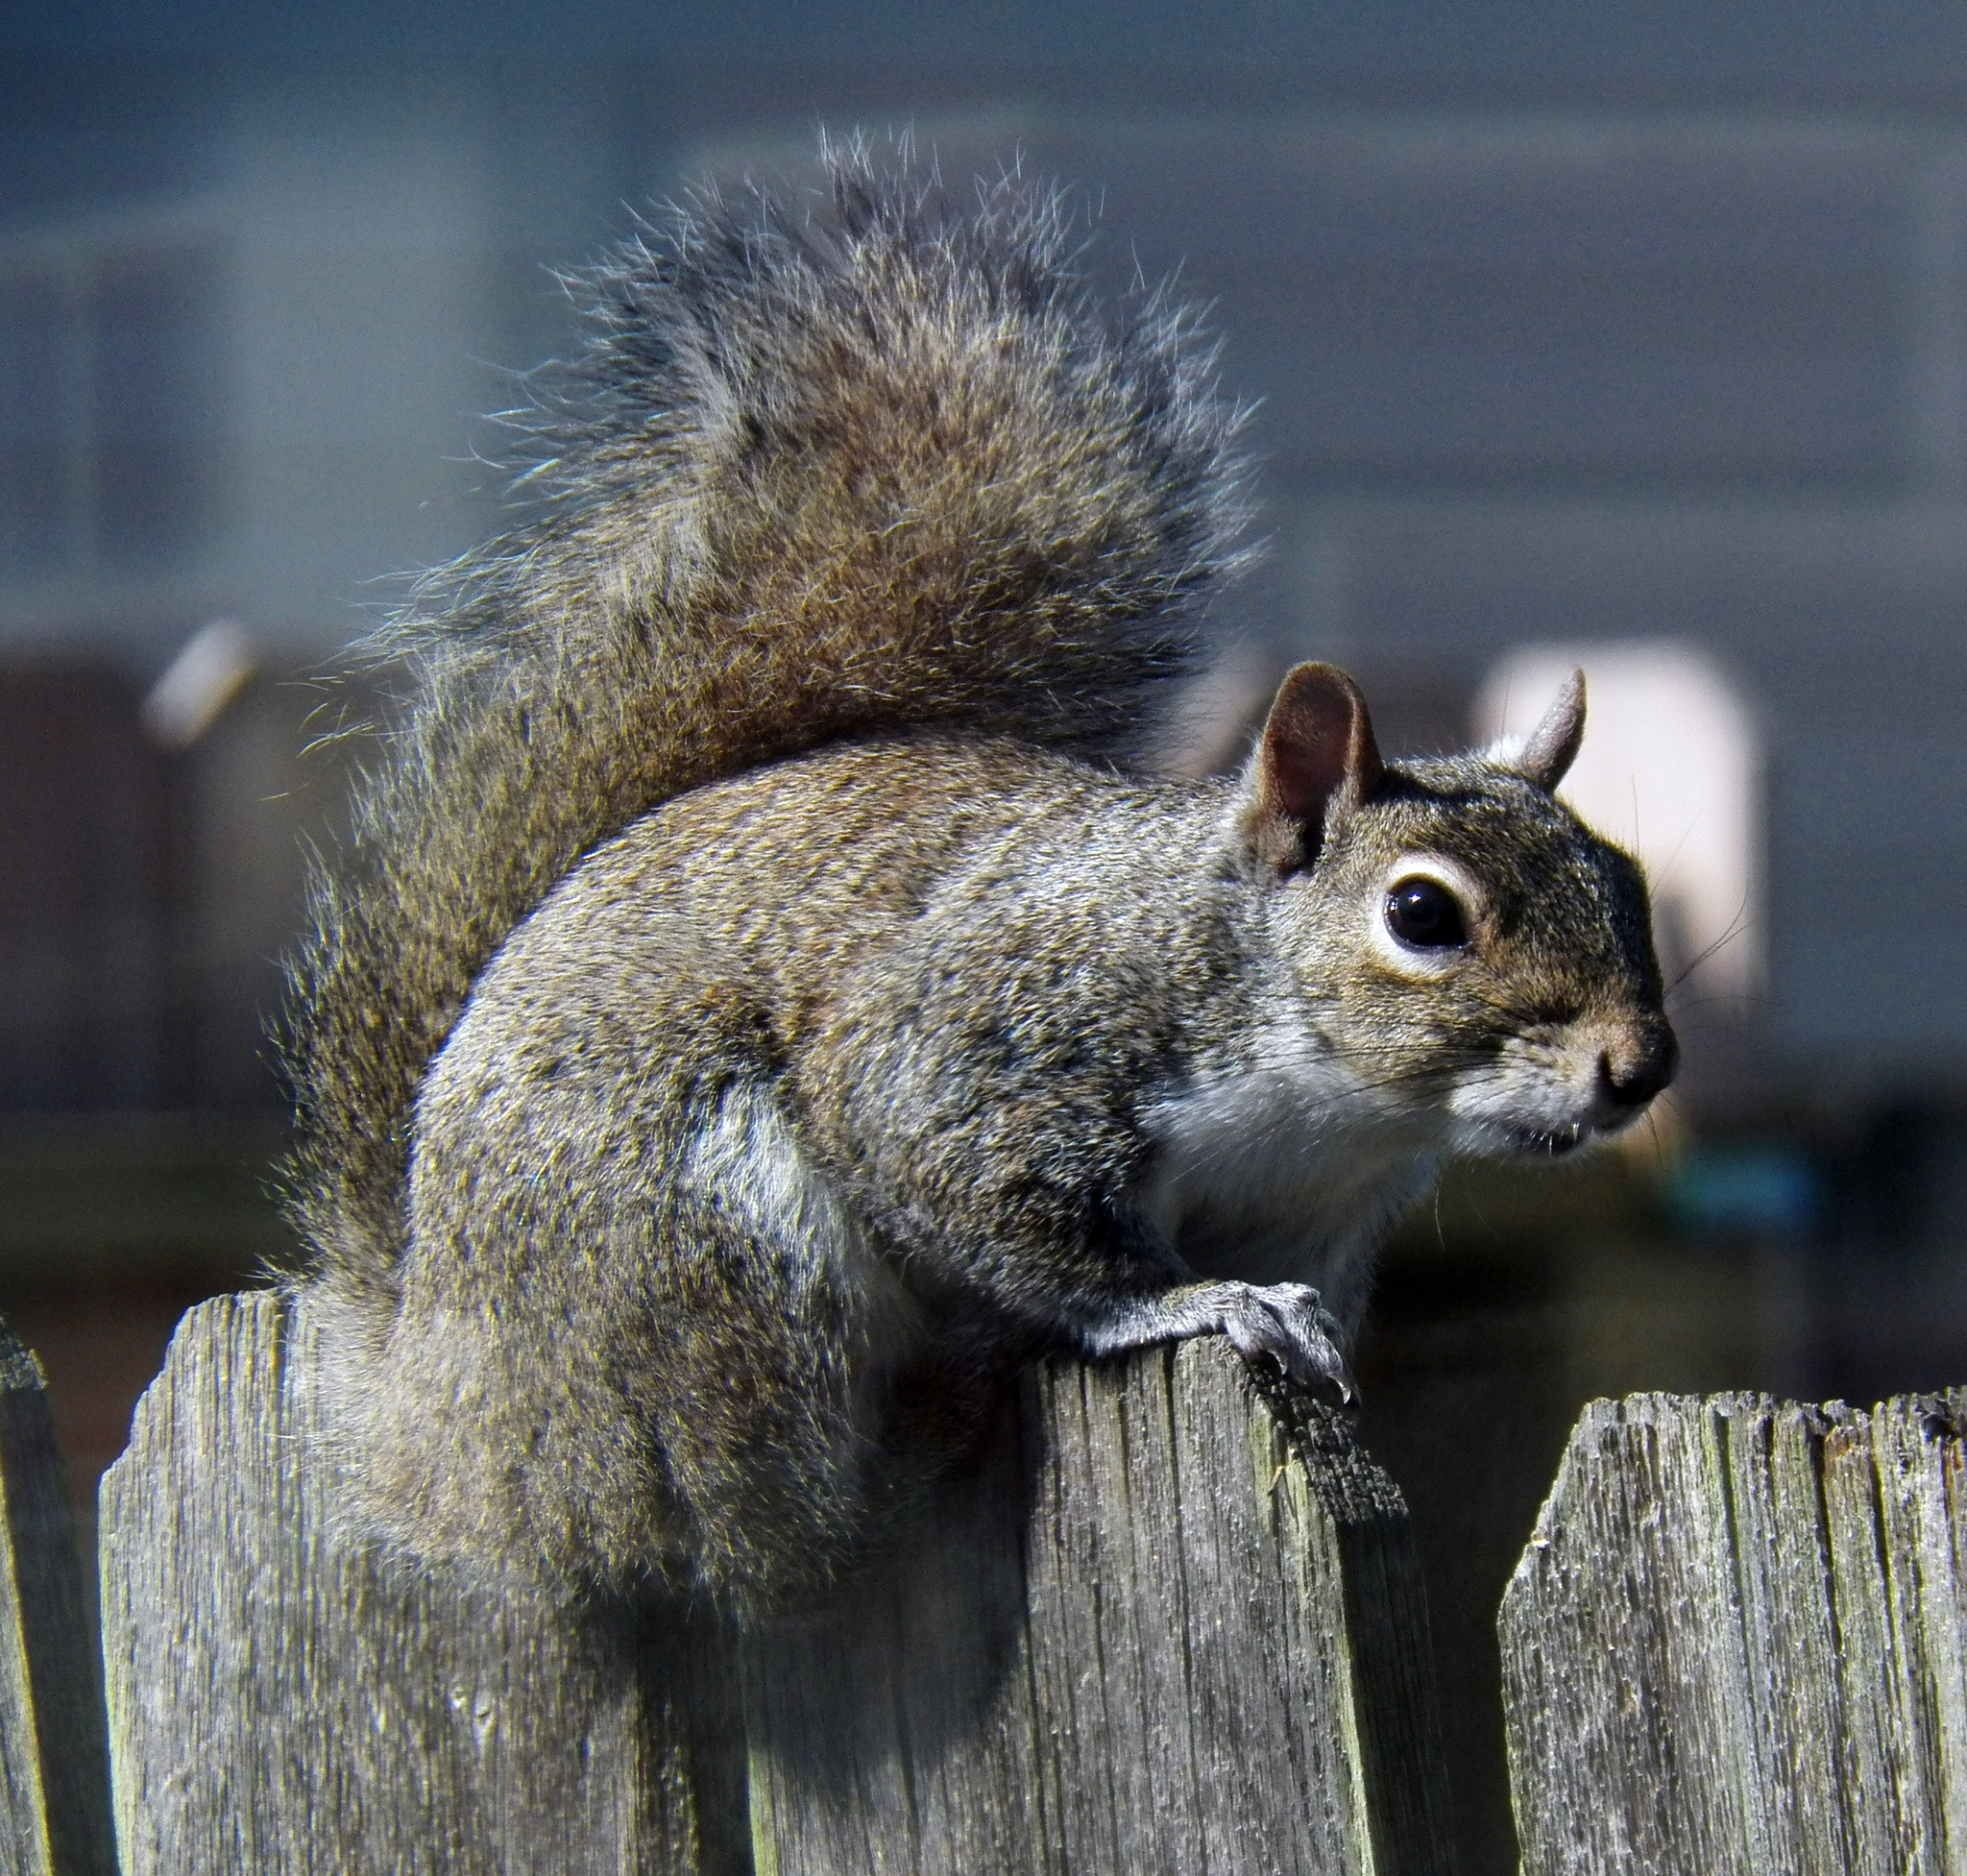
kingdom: Animalia
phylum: Chordata
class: Mammalia
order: Rodentia
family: Sciuridae
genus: Sciurus
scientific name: Sciurus carolinensis
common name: Eastern gray squirrel
